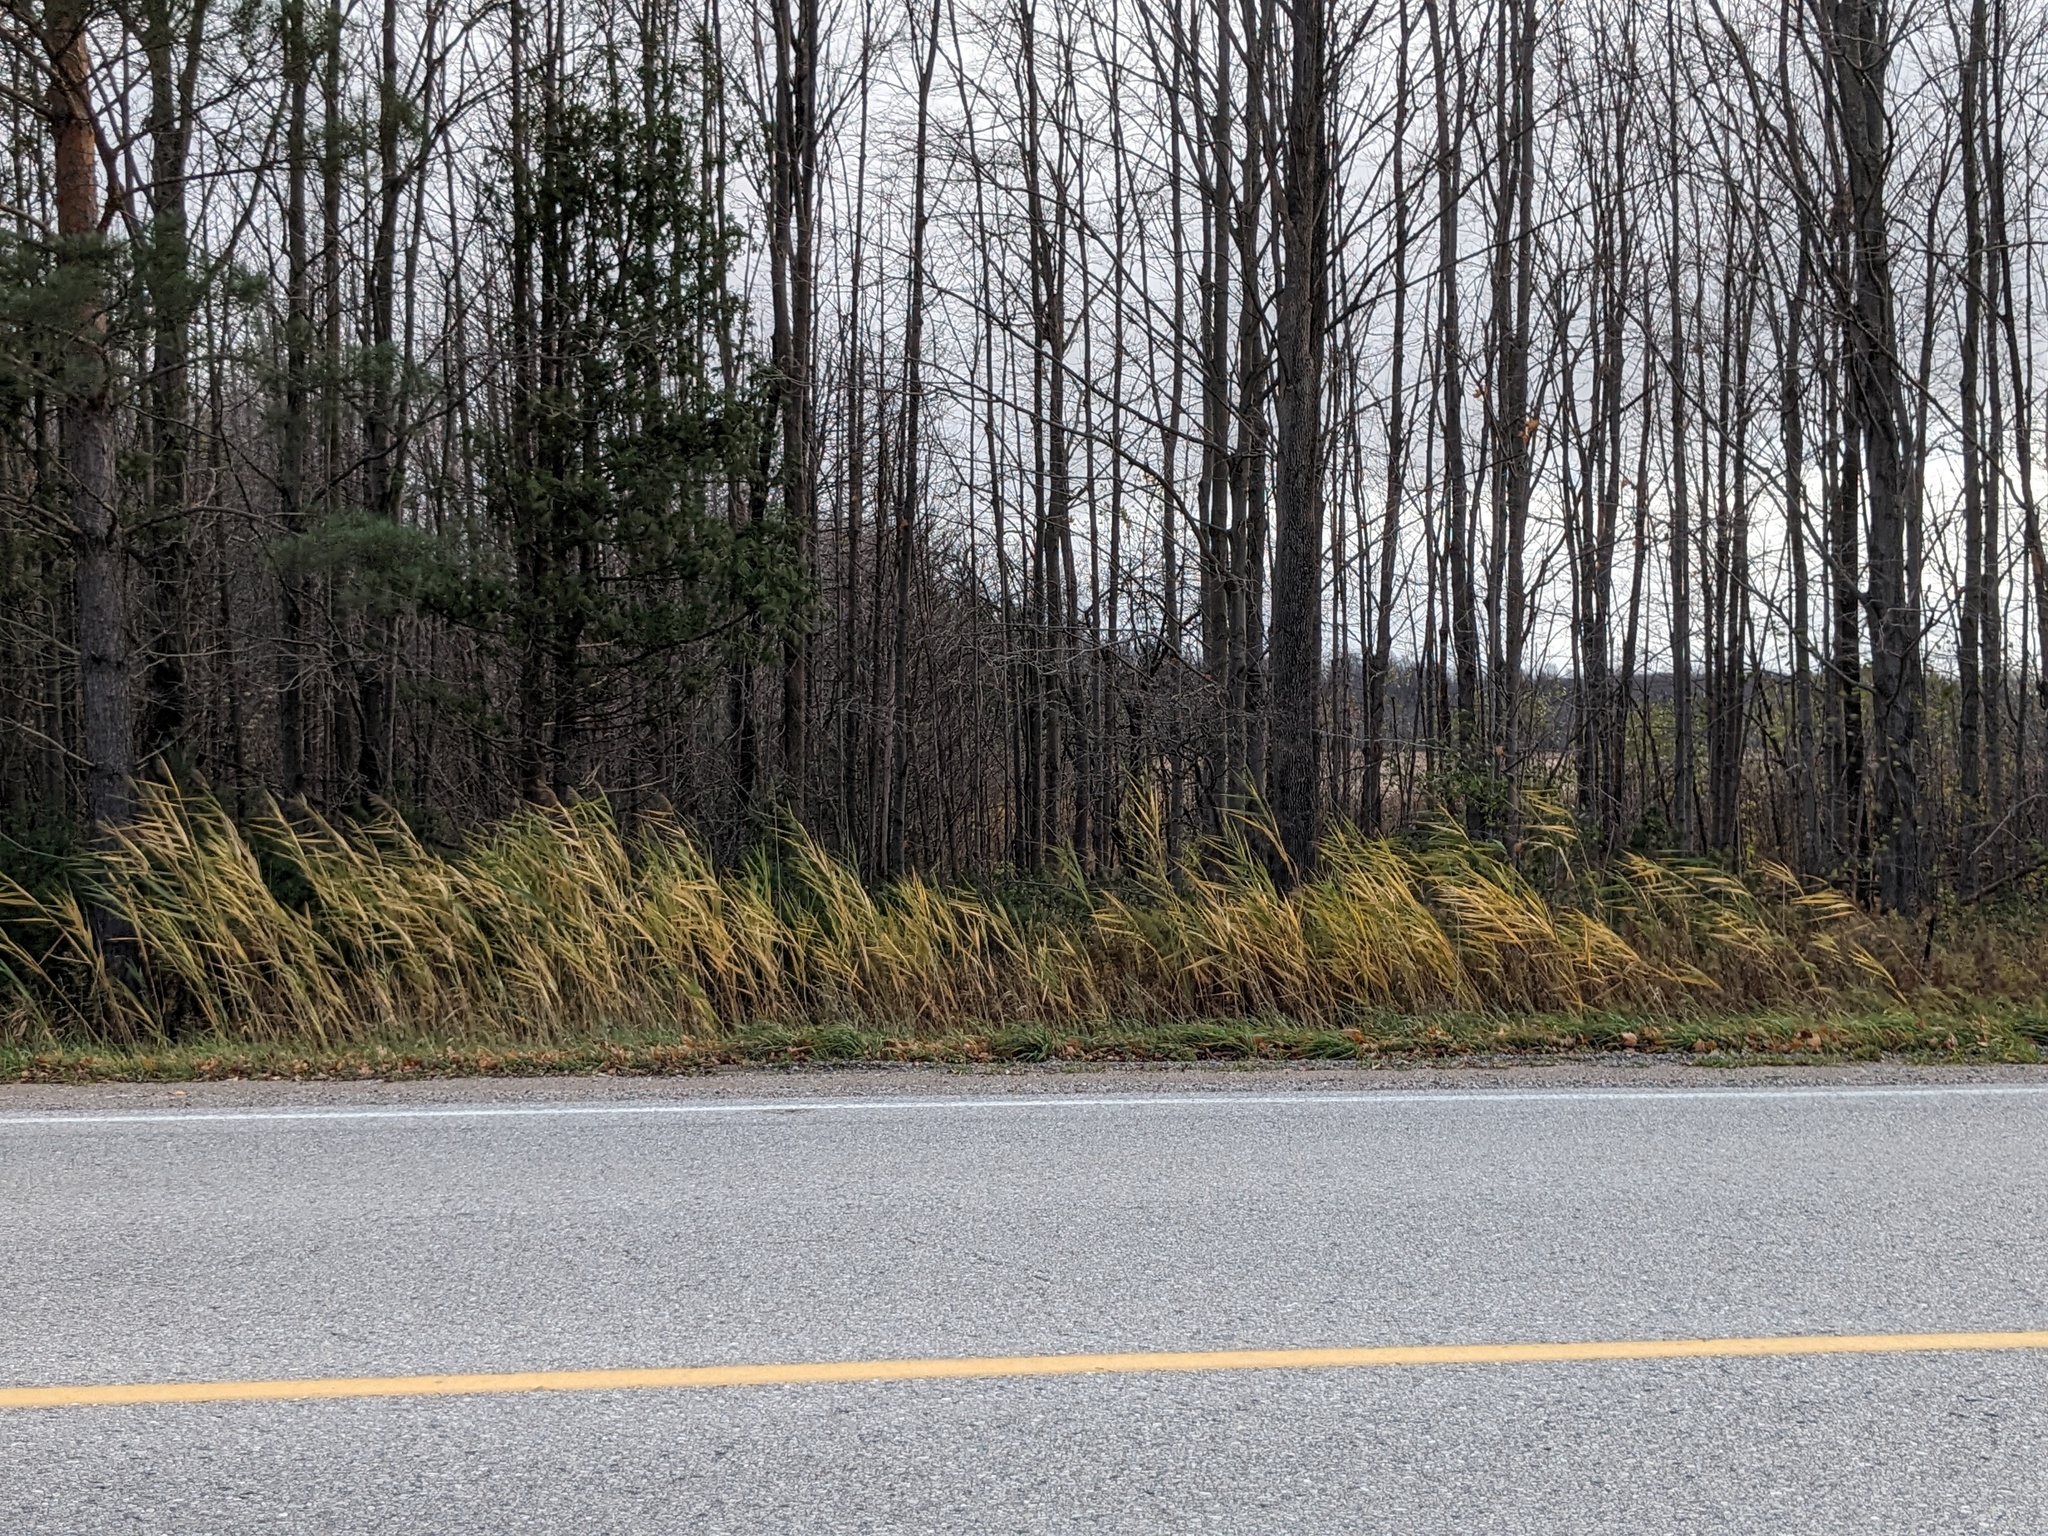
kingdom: Plantae
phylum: Tracheophyta
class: Liliopsida
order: Poales
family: Poaceae
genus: Phragmites
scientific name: Phragmites australis
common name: Common reed
